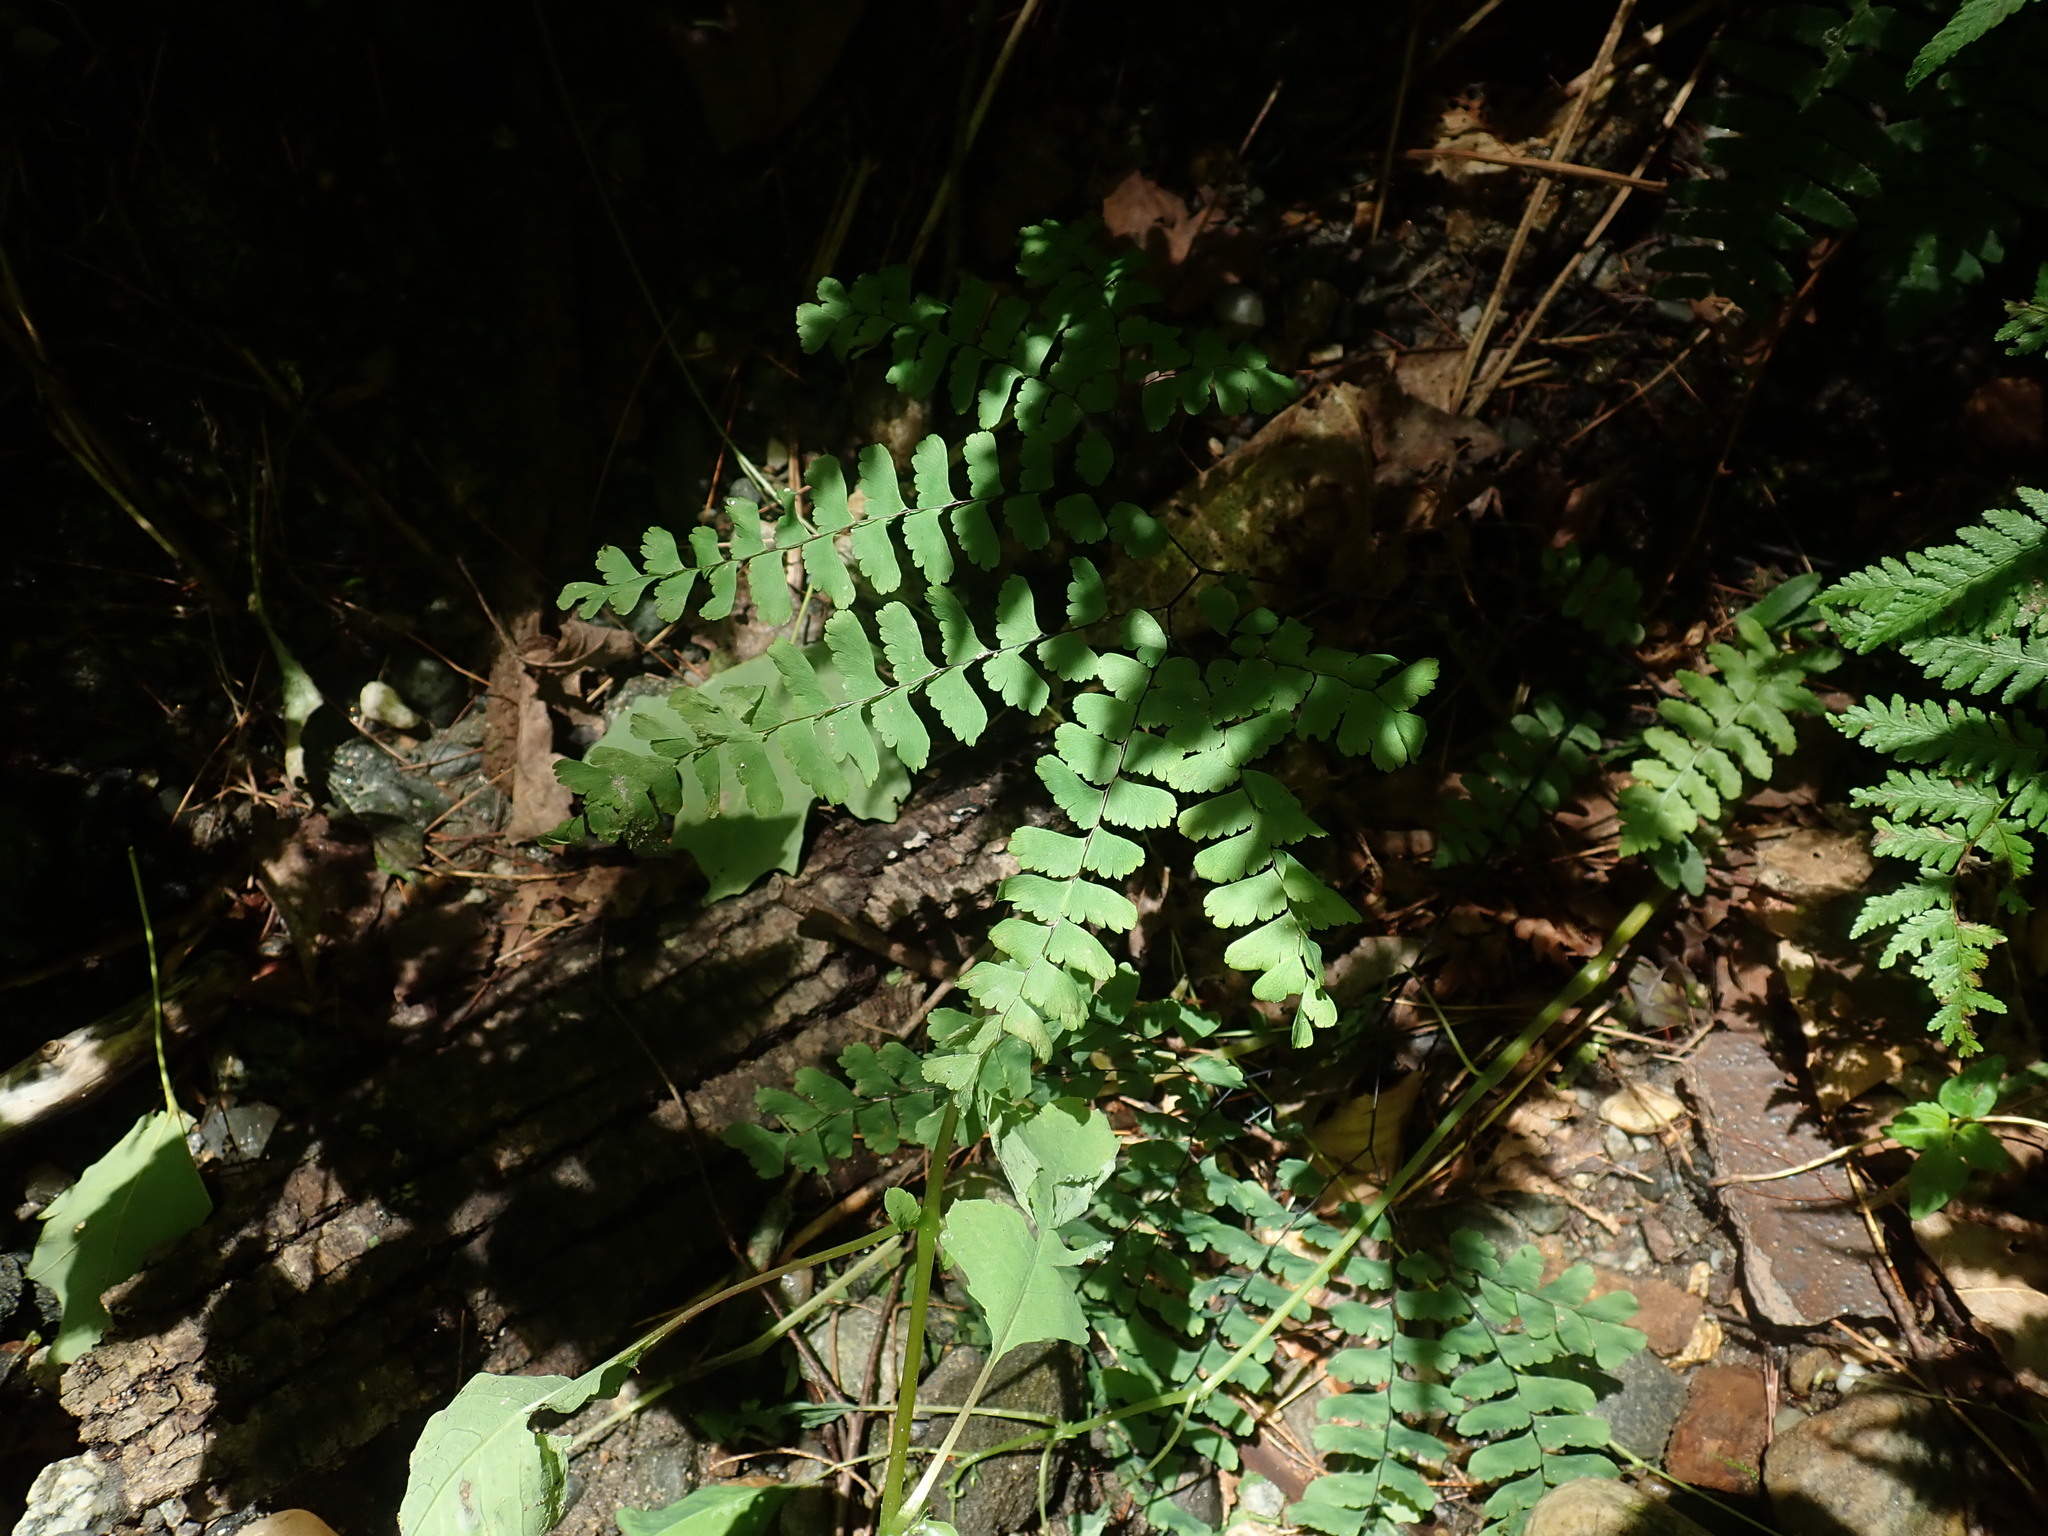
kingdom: Plantae
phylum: Tracheophyta
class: Polypodiopsida
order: Polypodiales
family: Pteridaceae
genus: Adiantum
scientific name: Adiantum pedatum
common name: Five-finger fern
